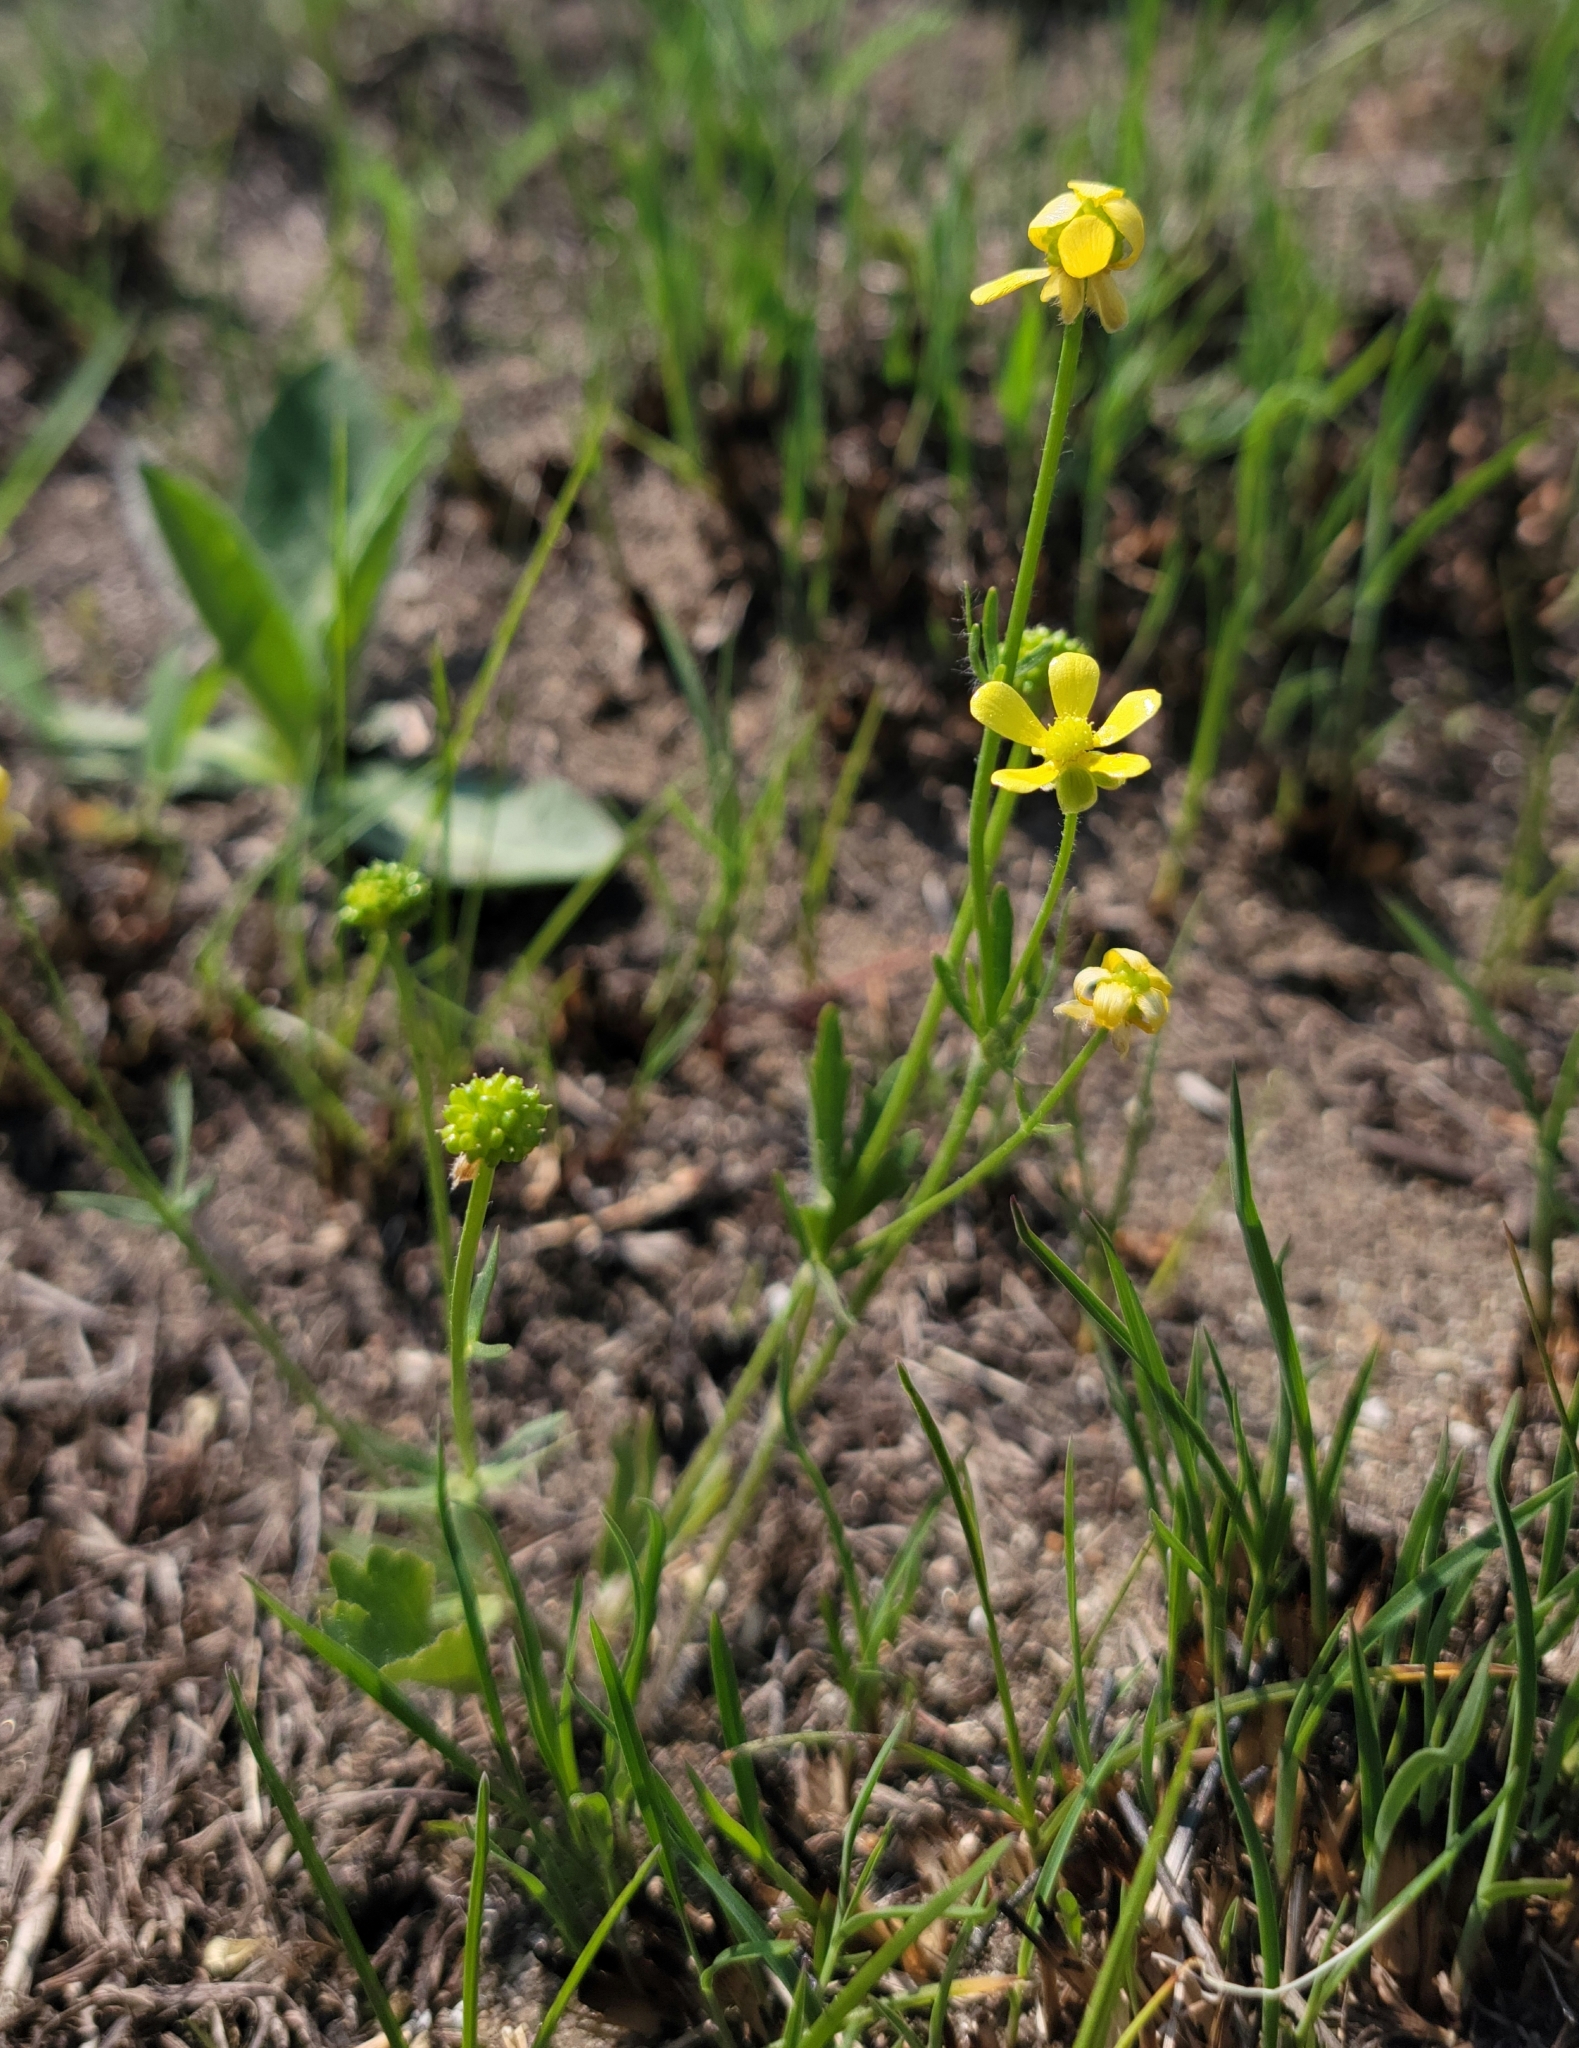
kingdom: Plantae
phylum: Tracheophyta
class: Magnoliopsida
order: Ranunculales
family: Ranunculaceae
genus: Ranunculus
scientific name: Ranunculus rhomboideus
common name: Prairie buttercup
